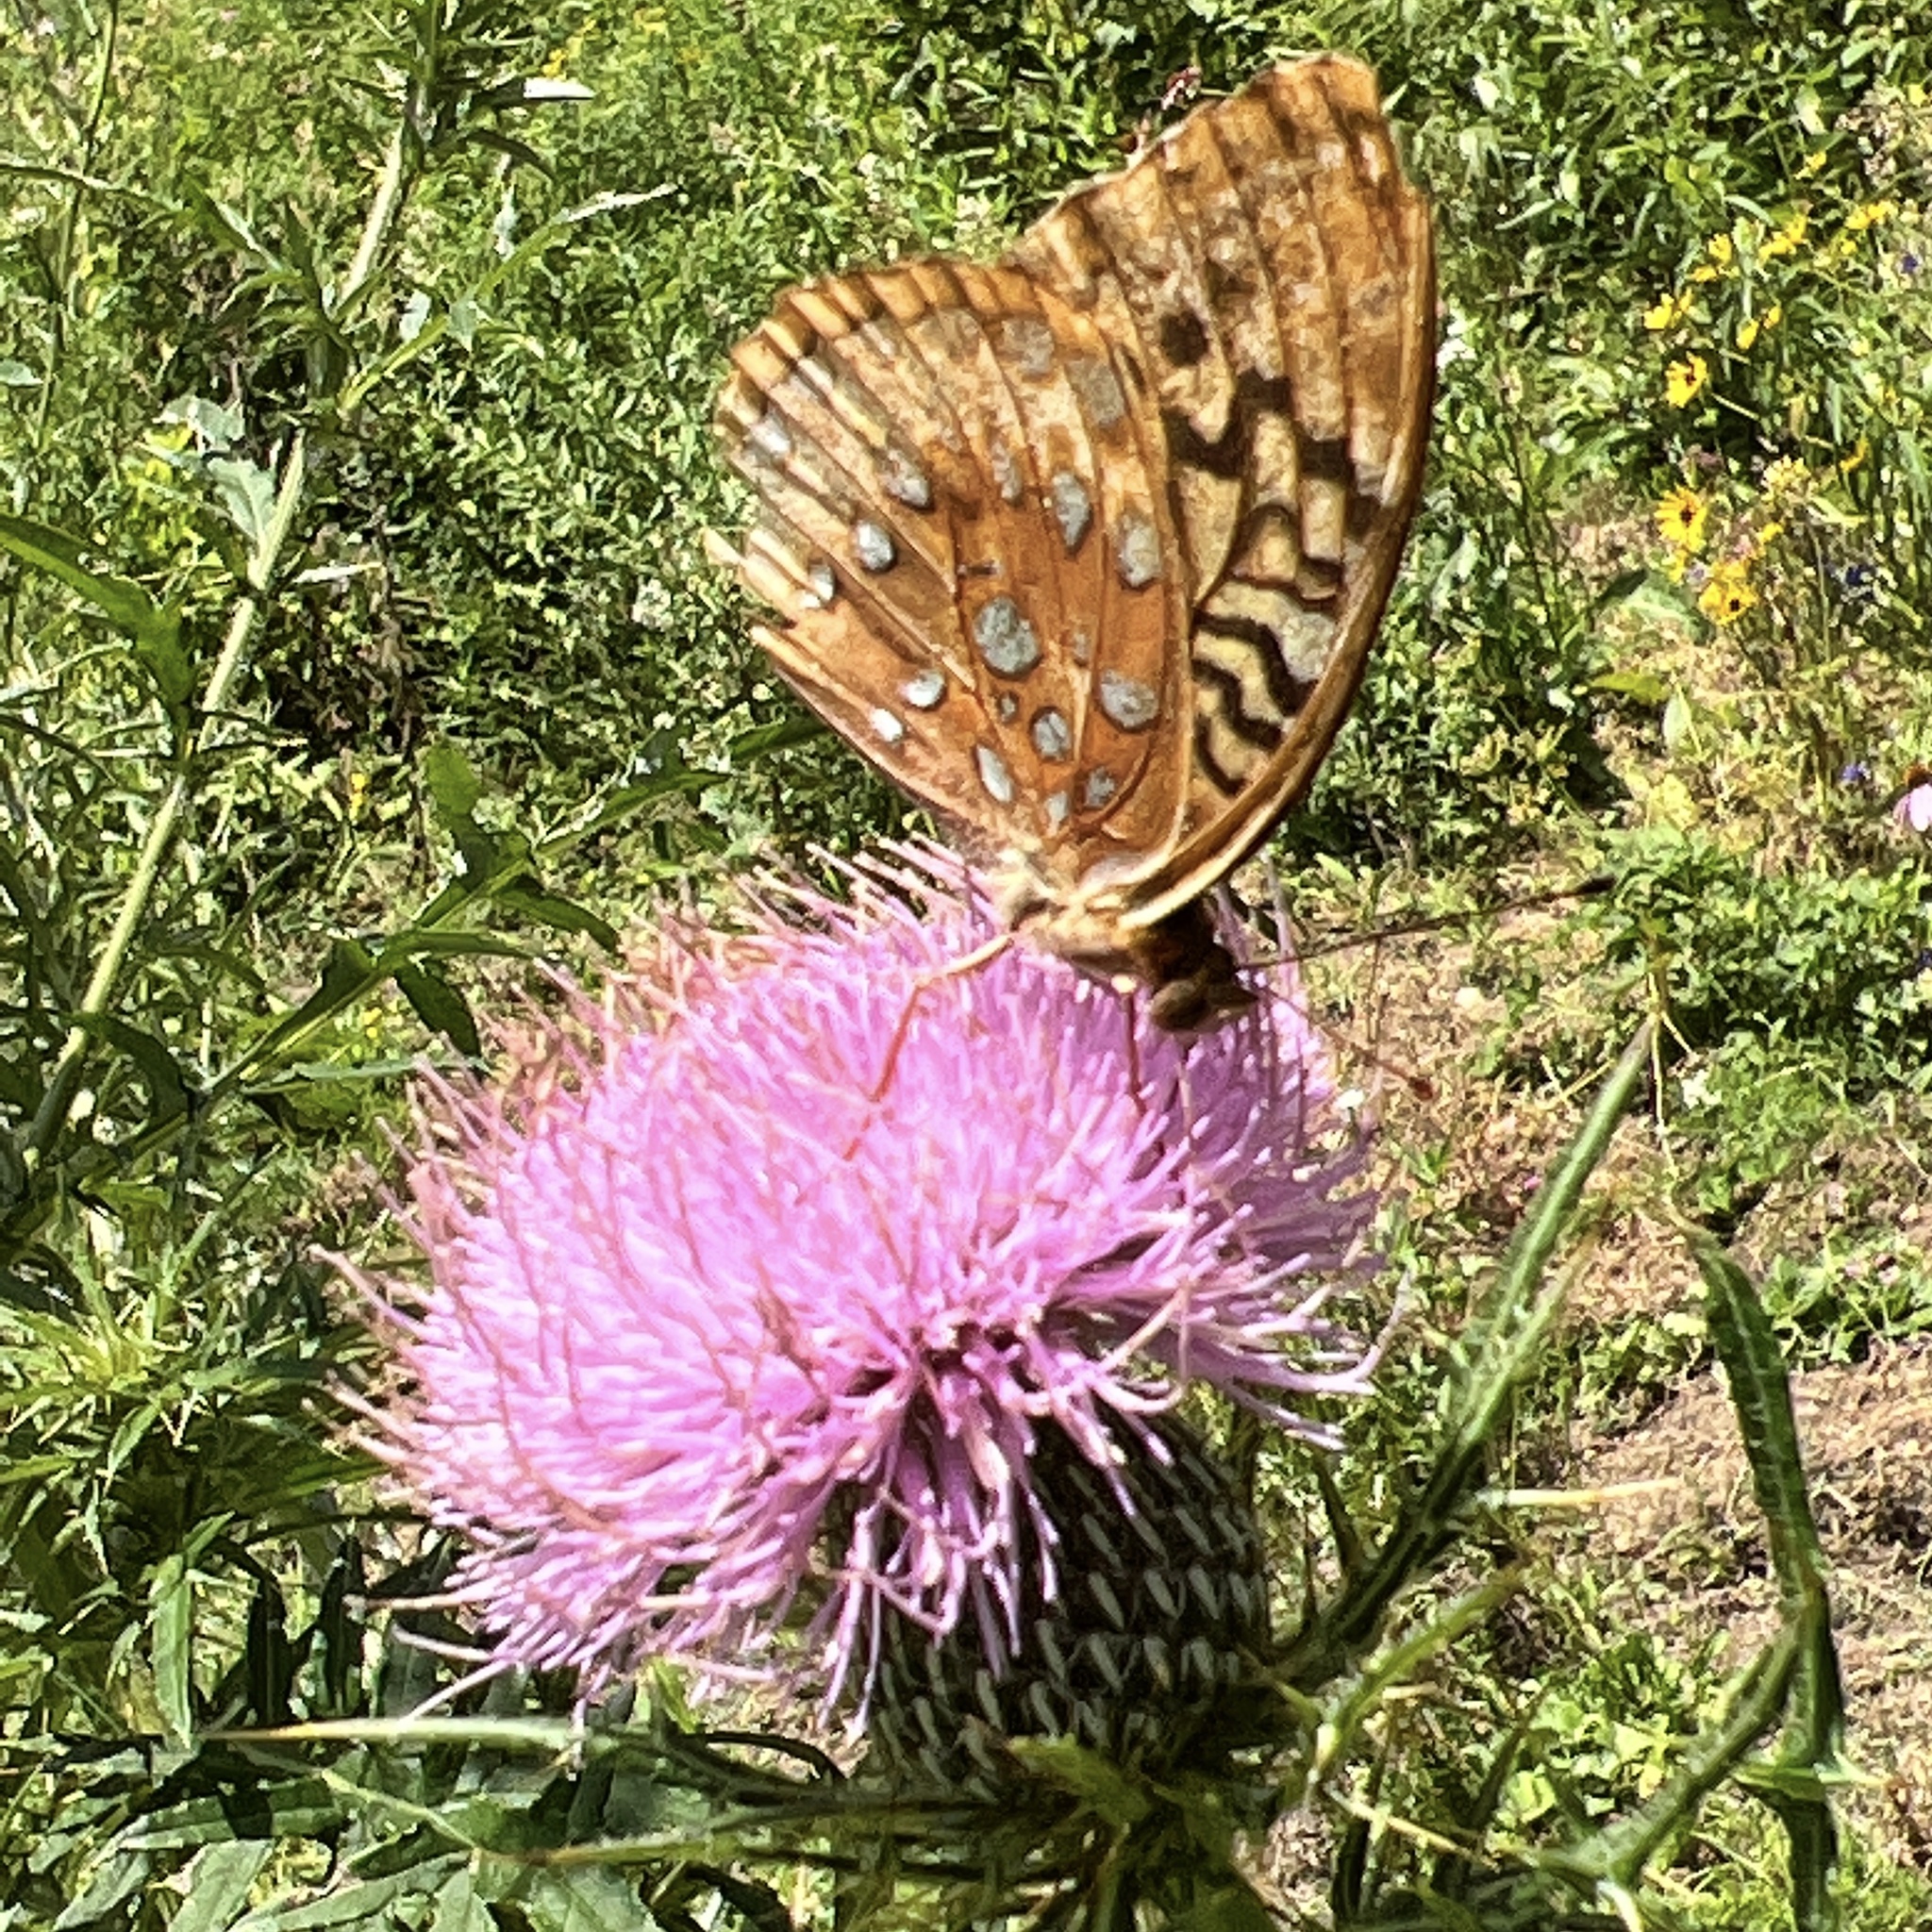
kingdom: Animalia
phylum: Arthropoda
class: Insecta
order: Lepidoptera
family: Nymphalidae
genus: Speyeria
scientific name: Speyeria cybele
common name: Great spangled fritillary
